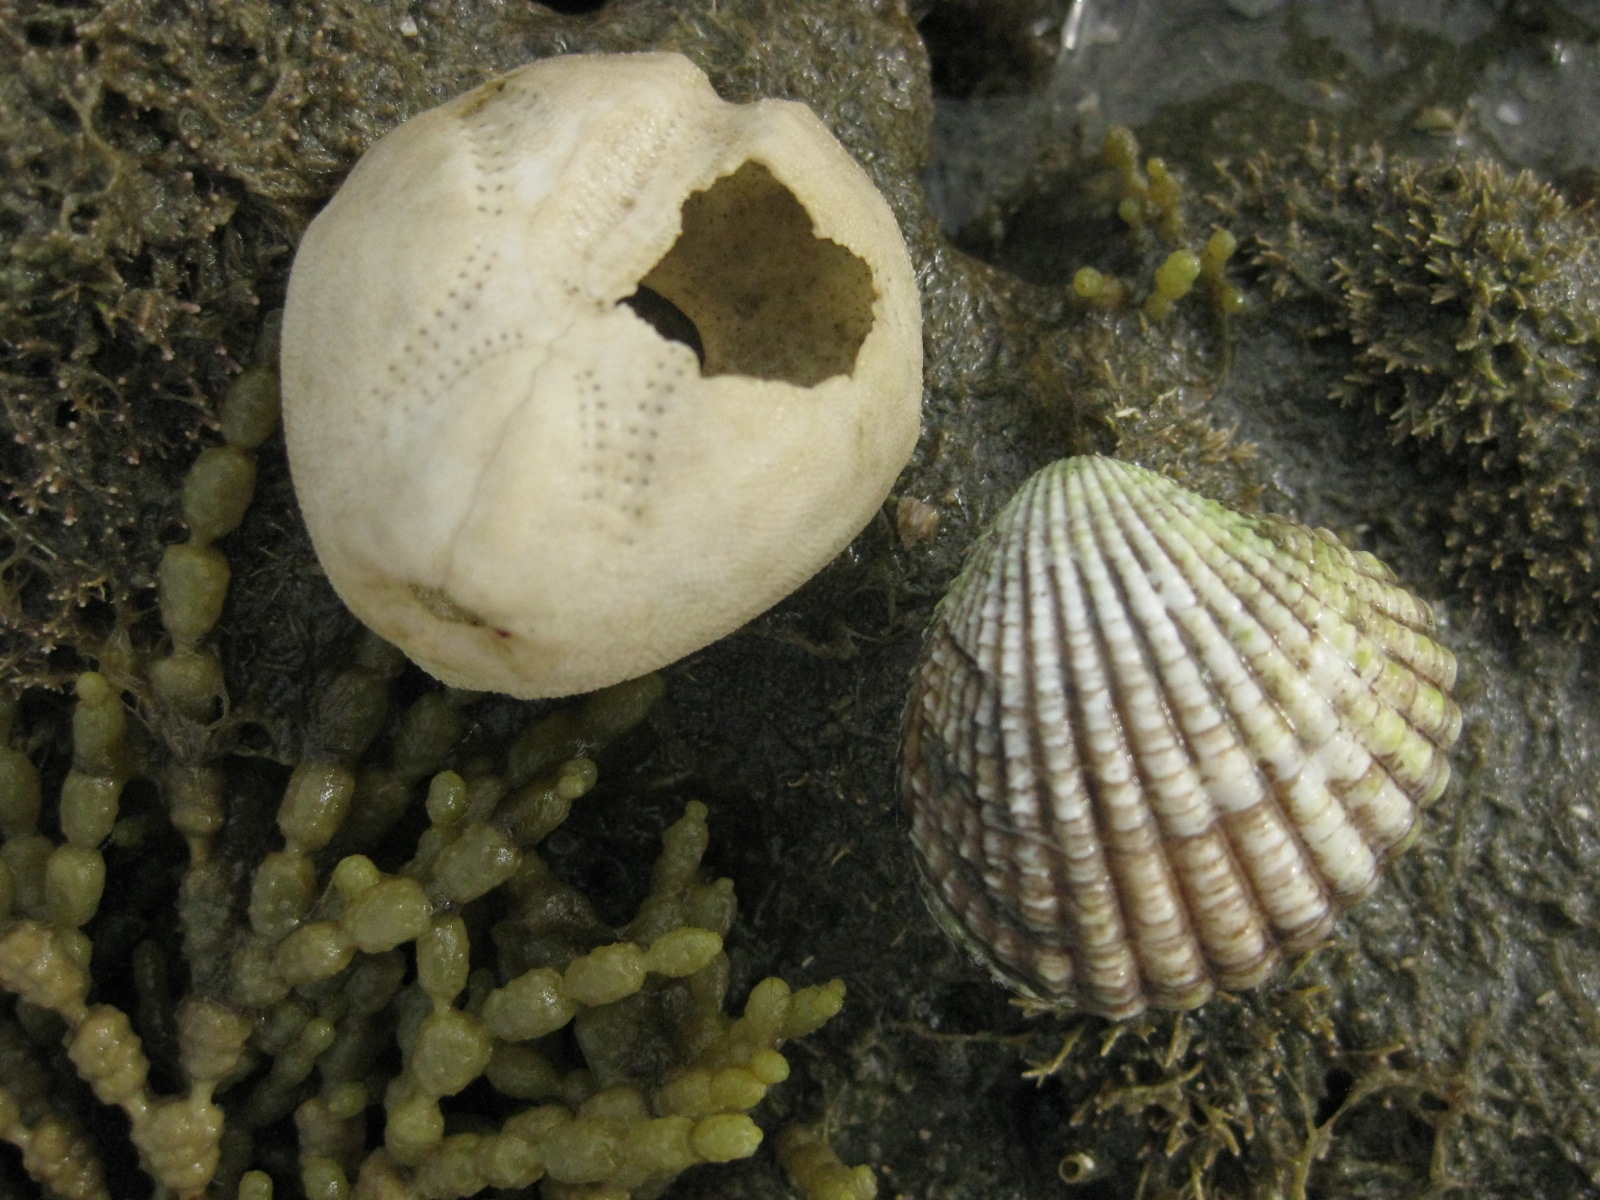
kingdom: Animalia
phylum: Echinodermata
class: Echinoidea
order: Spatangoida
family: Loveniidae
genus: Echinocardium
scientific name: Echinocardium cordatum
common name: Heart-urchin
